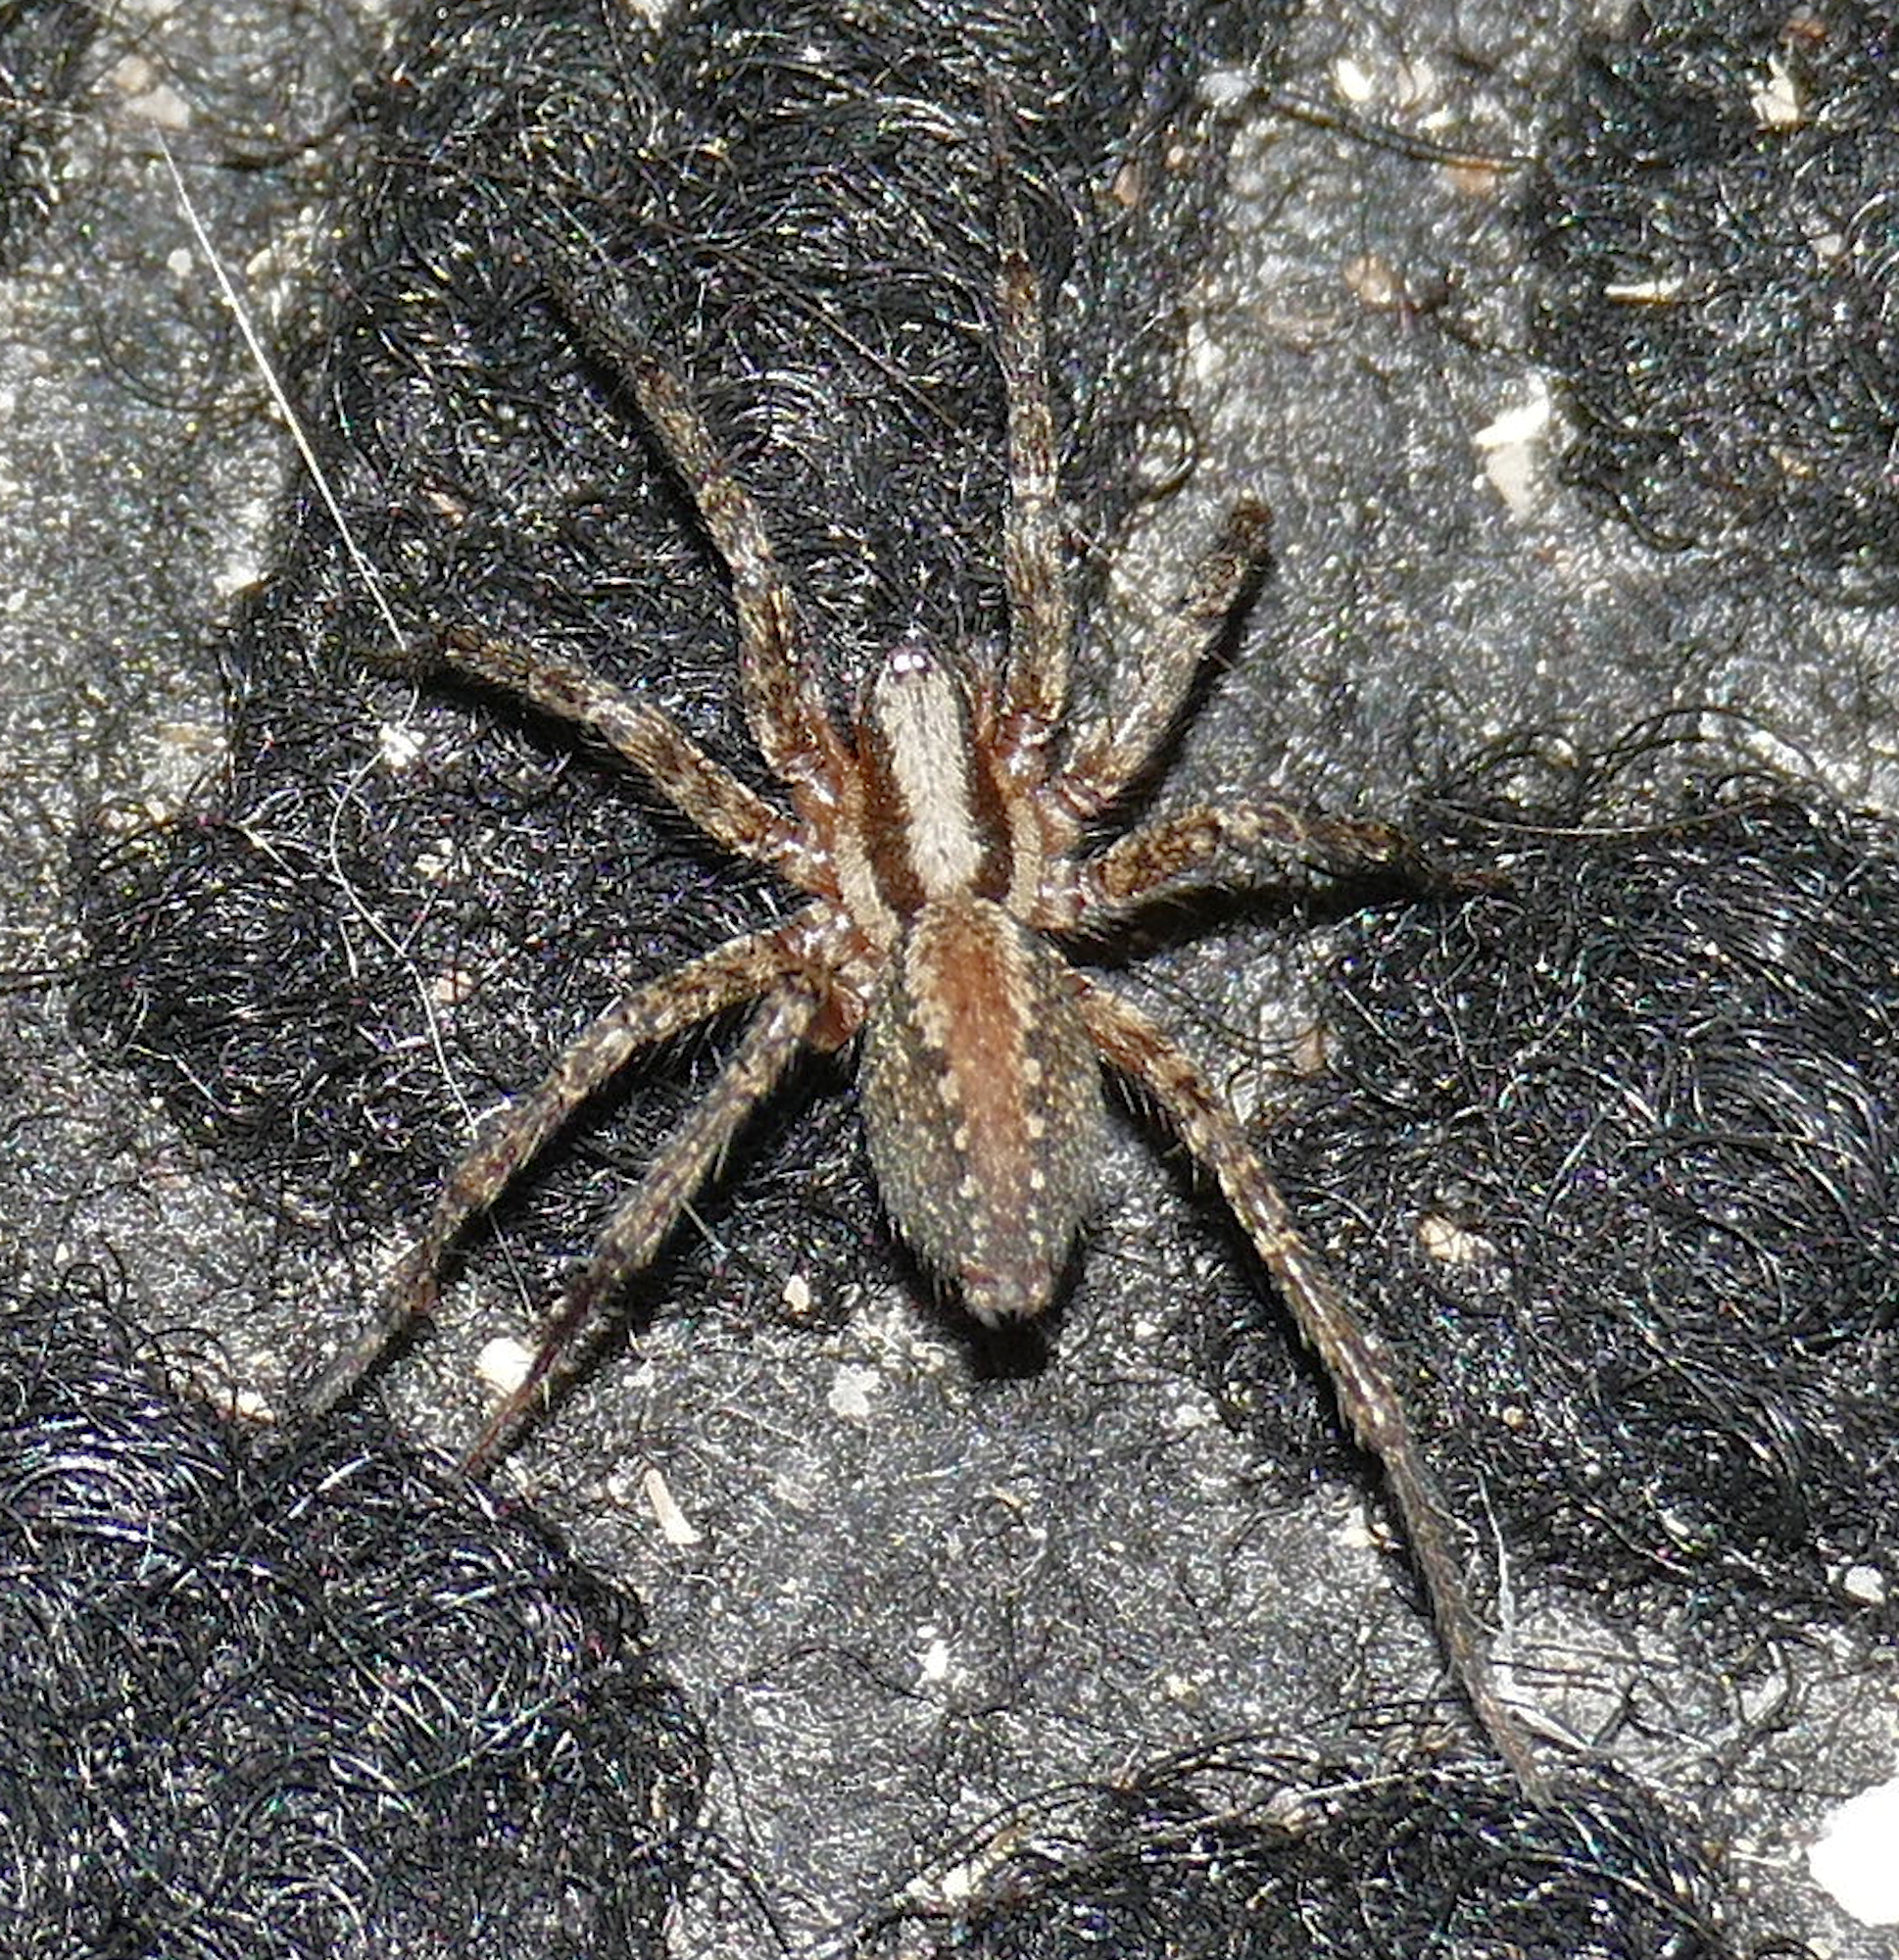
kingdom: Animalia
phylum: Arthropoda
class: Arachnida
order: Araneae
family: Agelenidae
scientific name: Agelenidae
